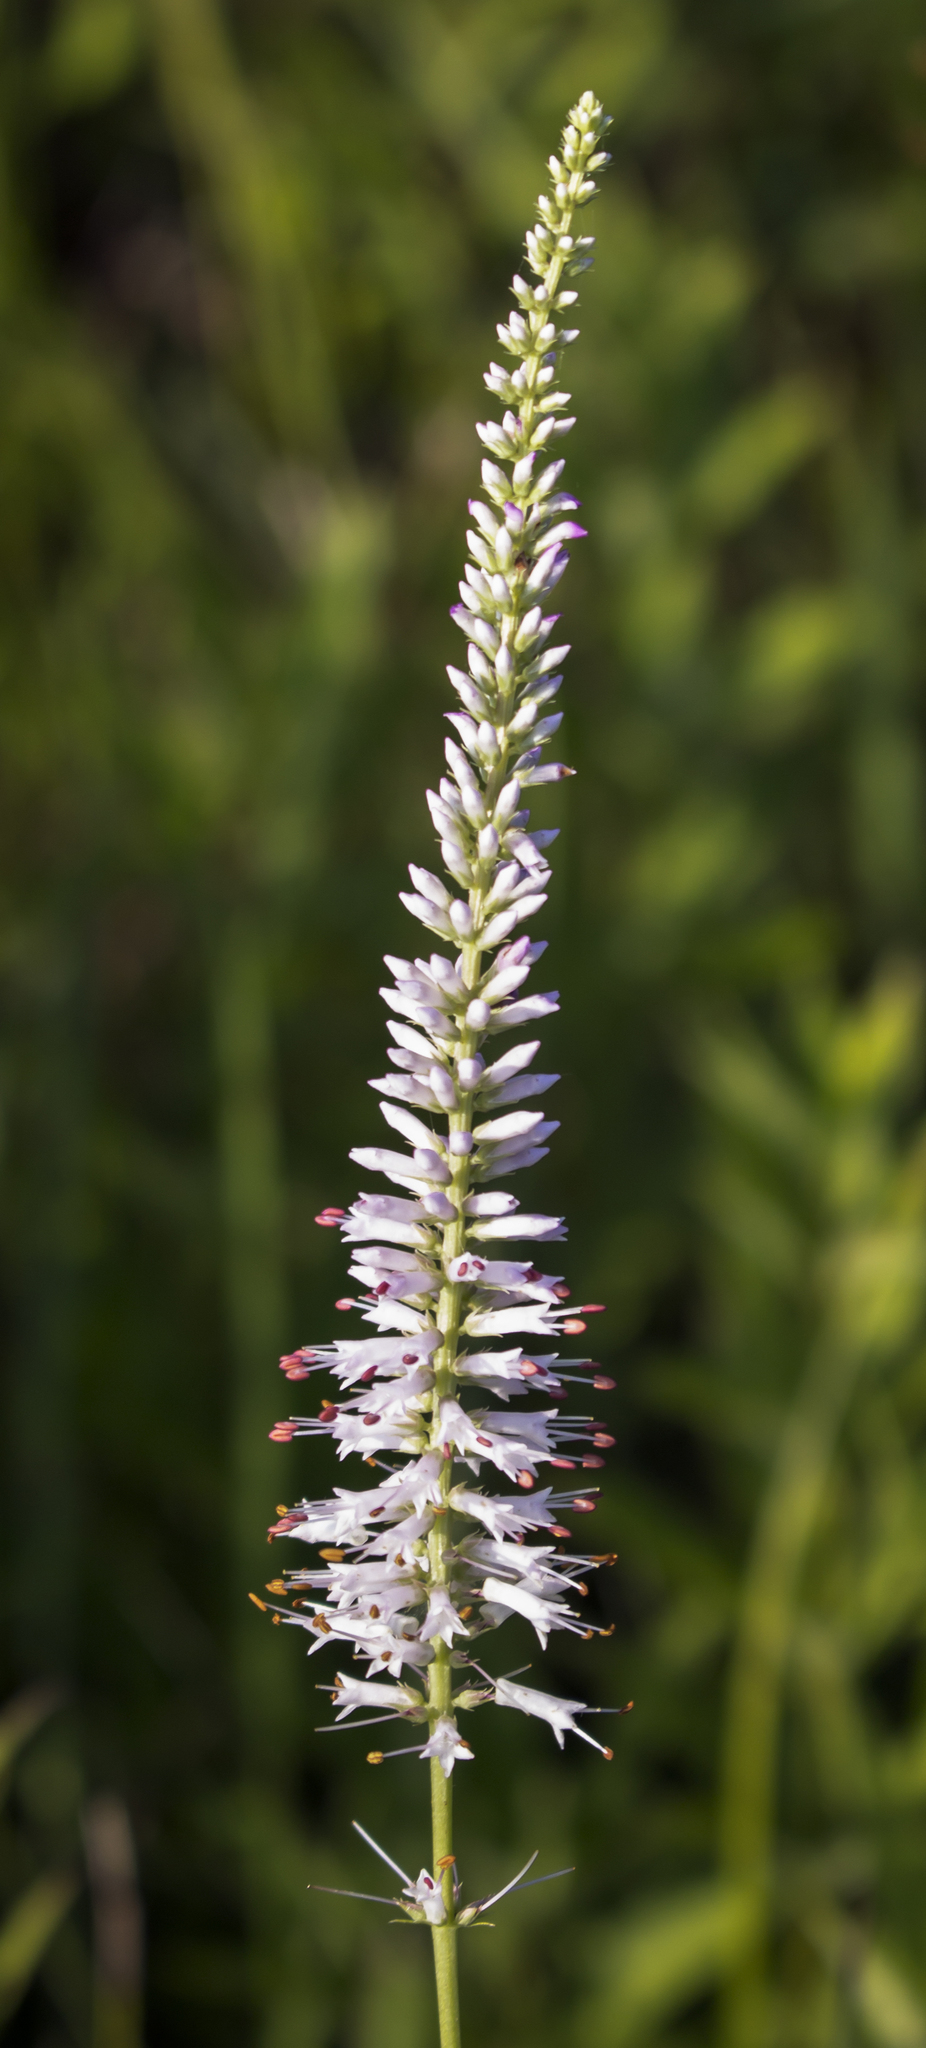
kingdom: Plantae
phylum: Tracheophyta
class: Magnoliopsida
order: Lamiales
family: Plantaginaceae
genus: Veronicastrum
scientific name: Veronicastrum virginicum
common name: Blackroot
